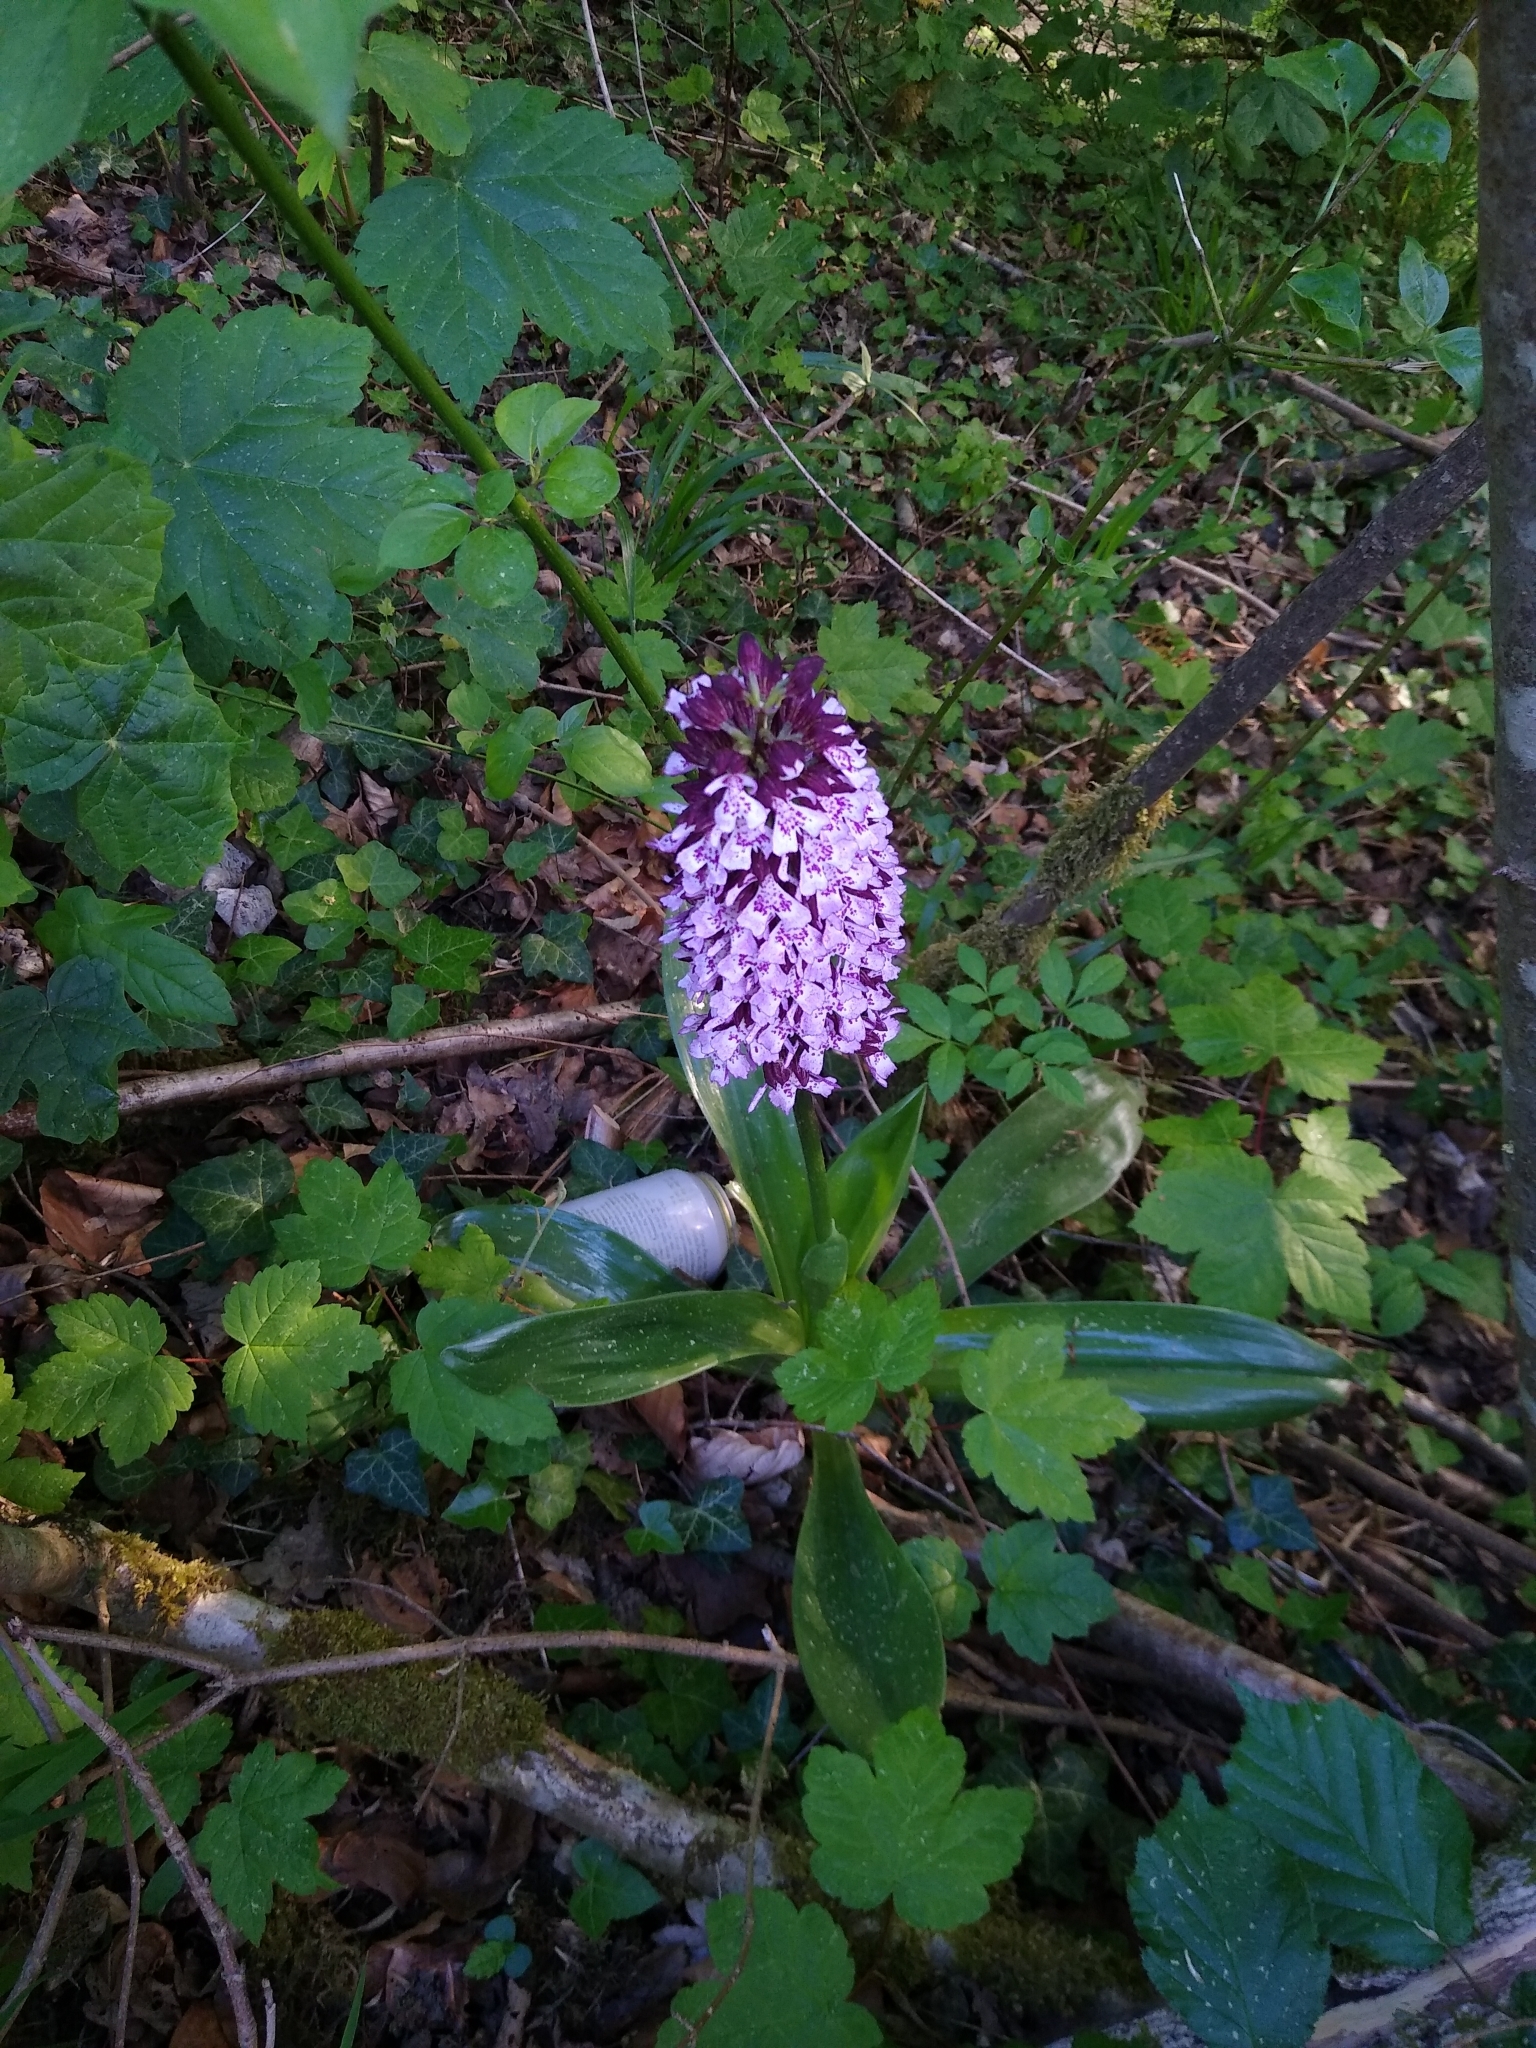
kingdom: Plantae
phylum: Tracheophyta
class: Liliopsida
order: Asparagales
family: Orchidaceae
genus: Orchis
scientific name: Orchis purpurea
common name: Lady orchid
